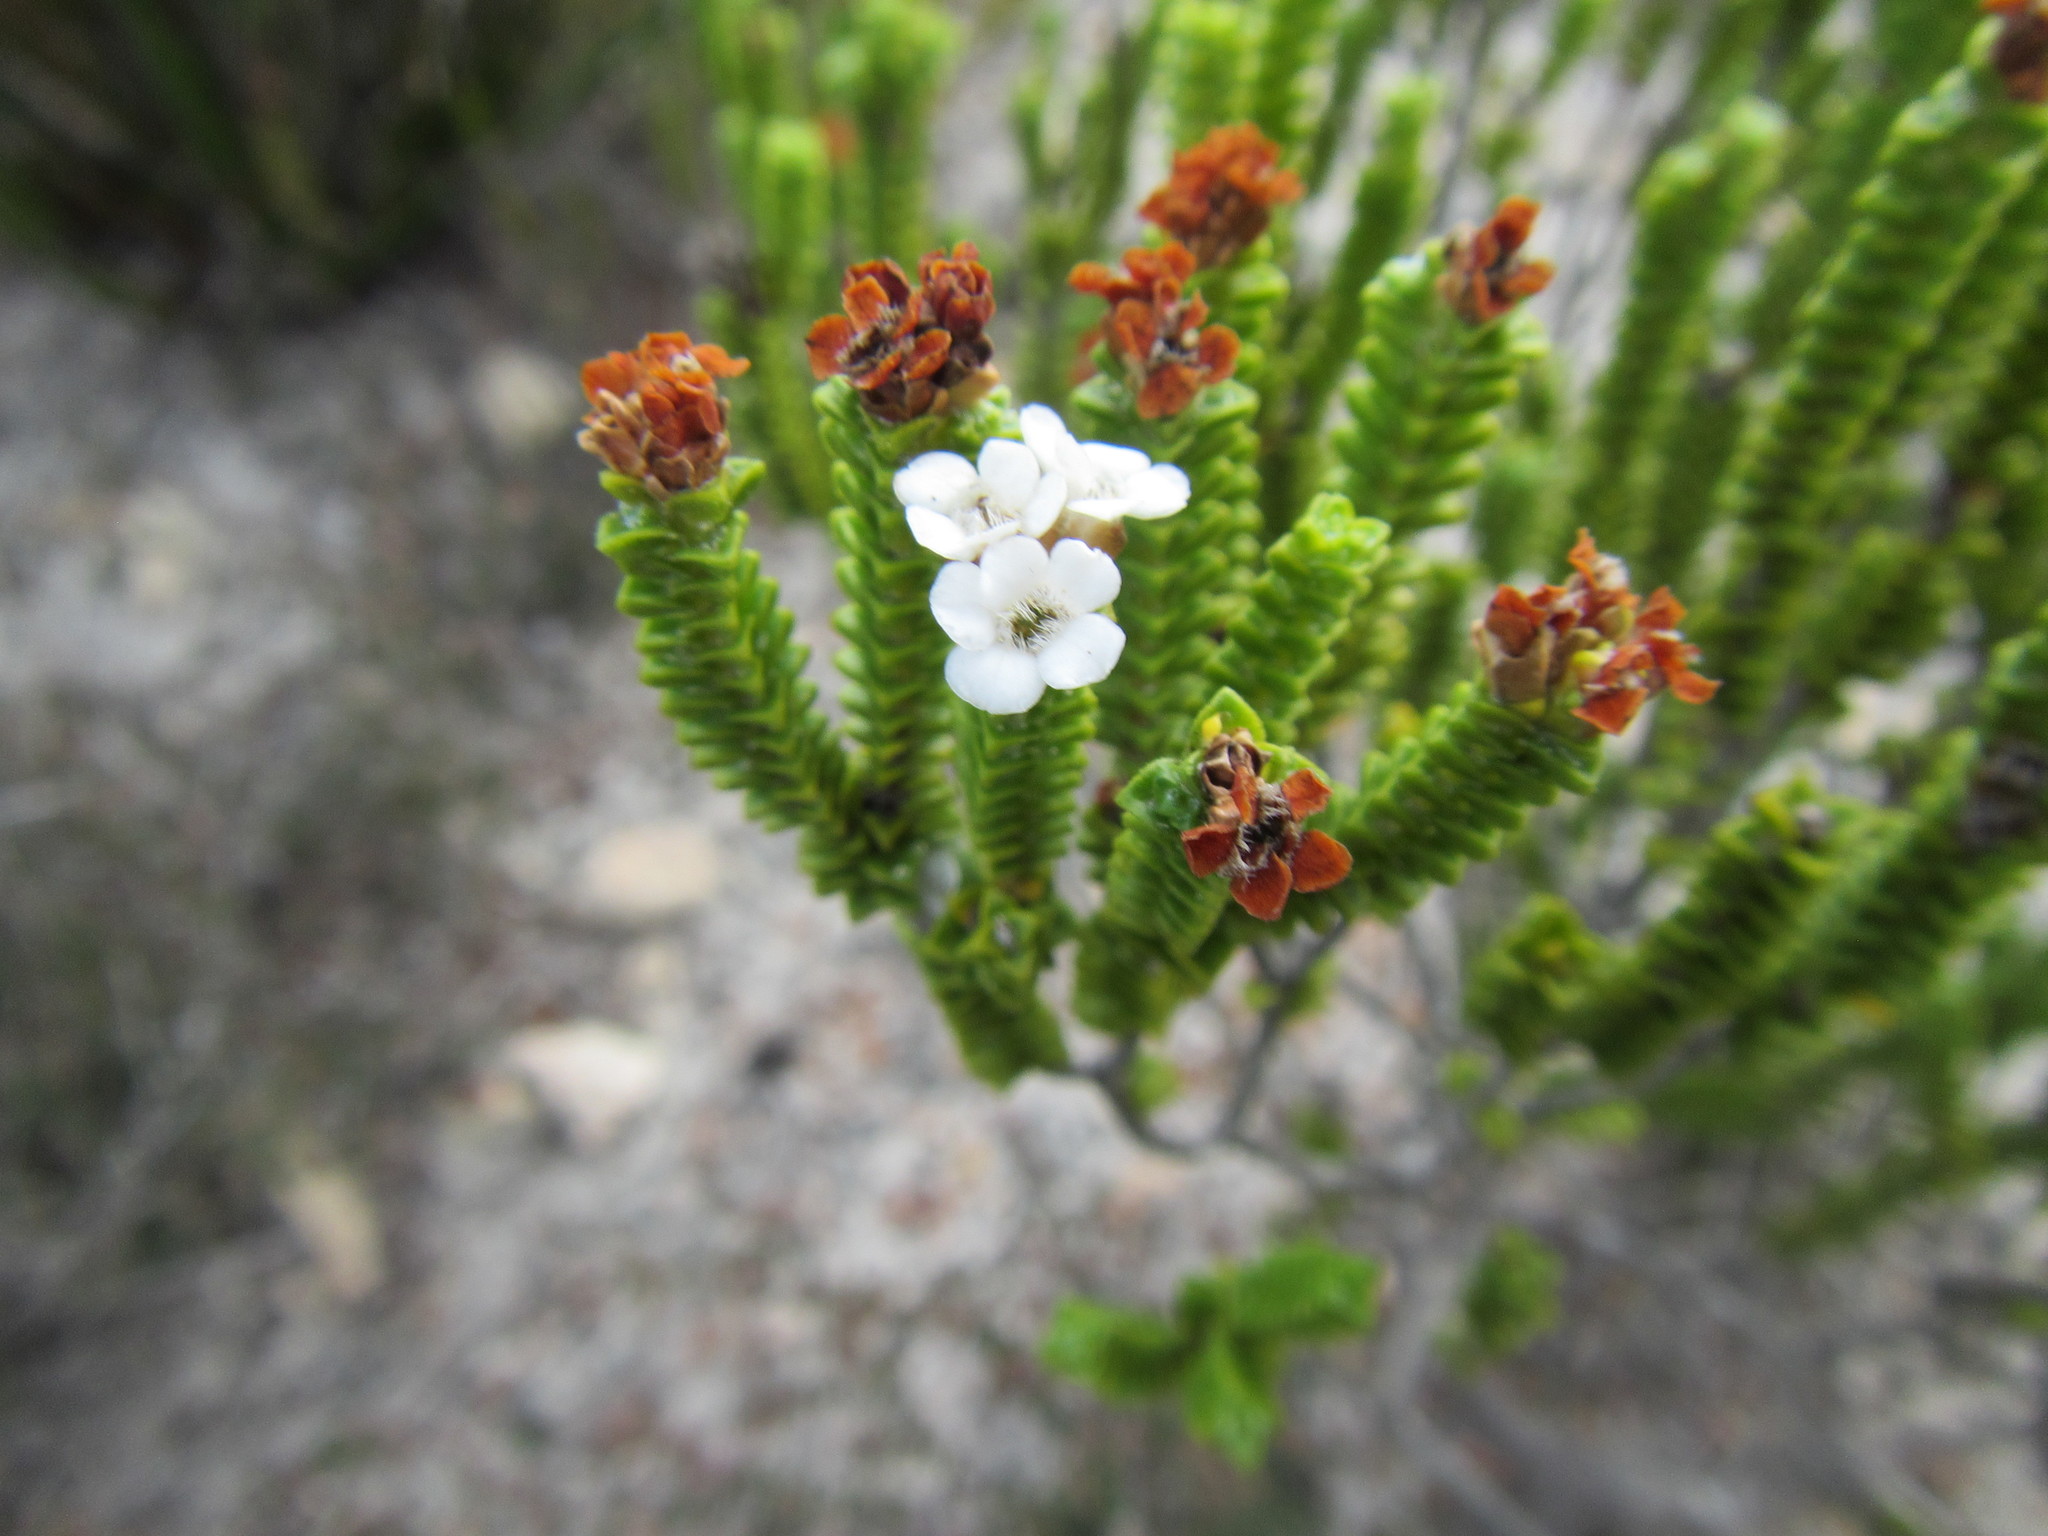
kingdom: Plantae
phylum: Tracheophyta
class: Magnoliopsida
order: Sapindales
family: Rutaceae
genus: Euchaetis
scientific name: Euchaetis meridionalis
